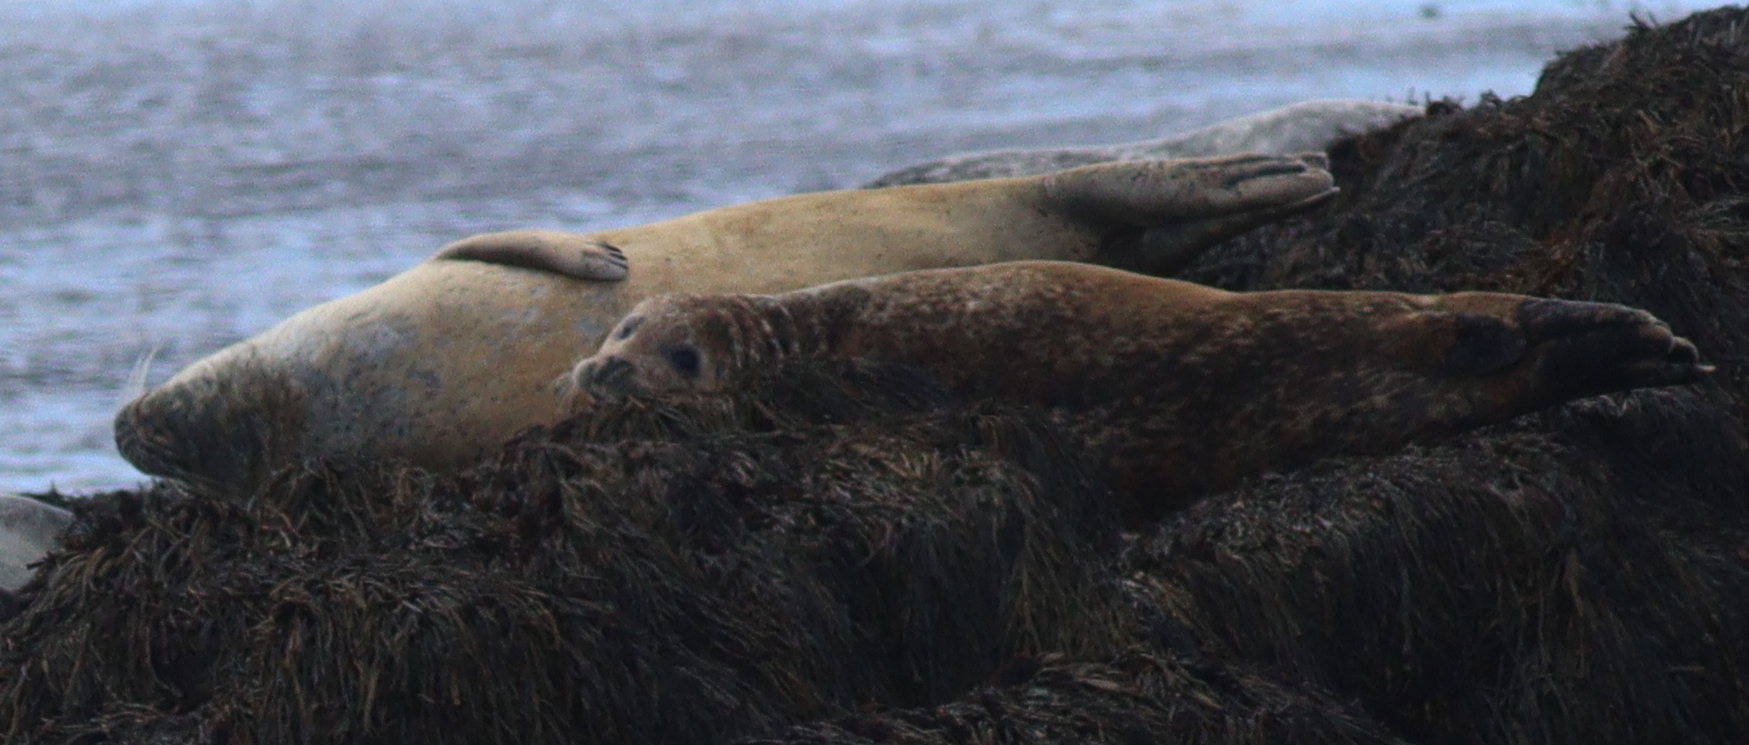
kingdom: Animalia
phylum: Chordata
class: Mammalia
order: Carnivora
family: Phocidae
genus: Phoca
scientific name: Phoca vitulina
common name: Harbor seal
